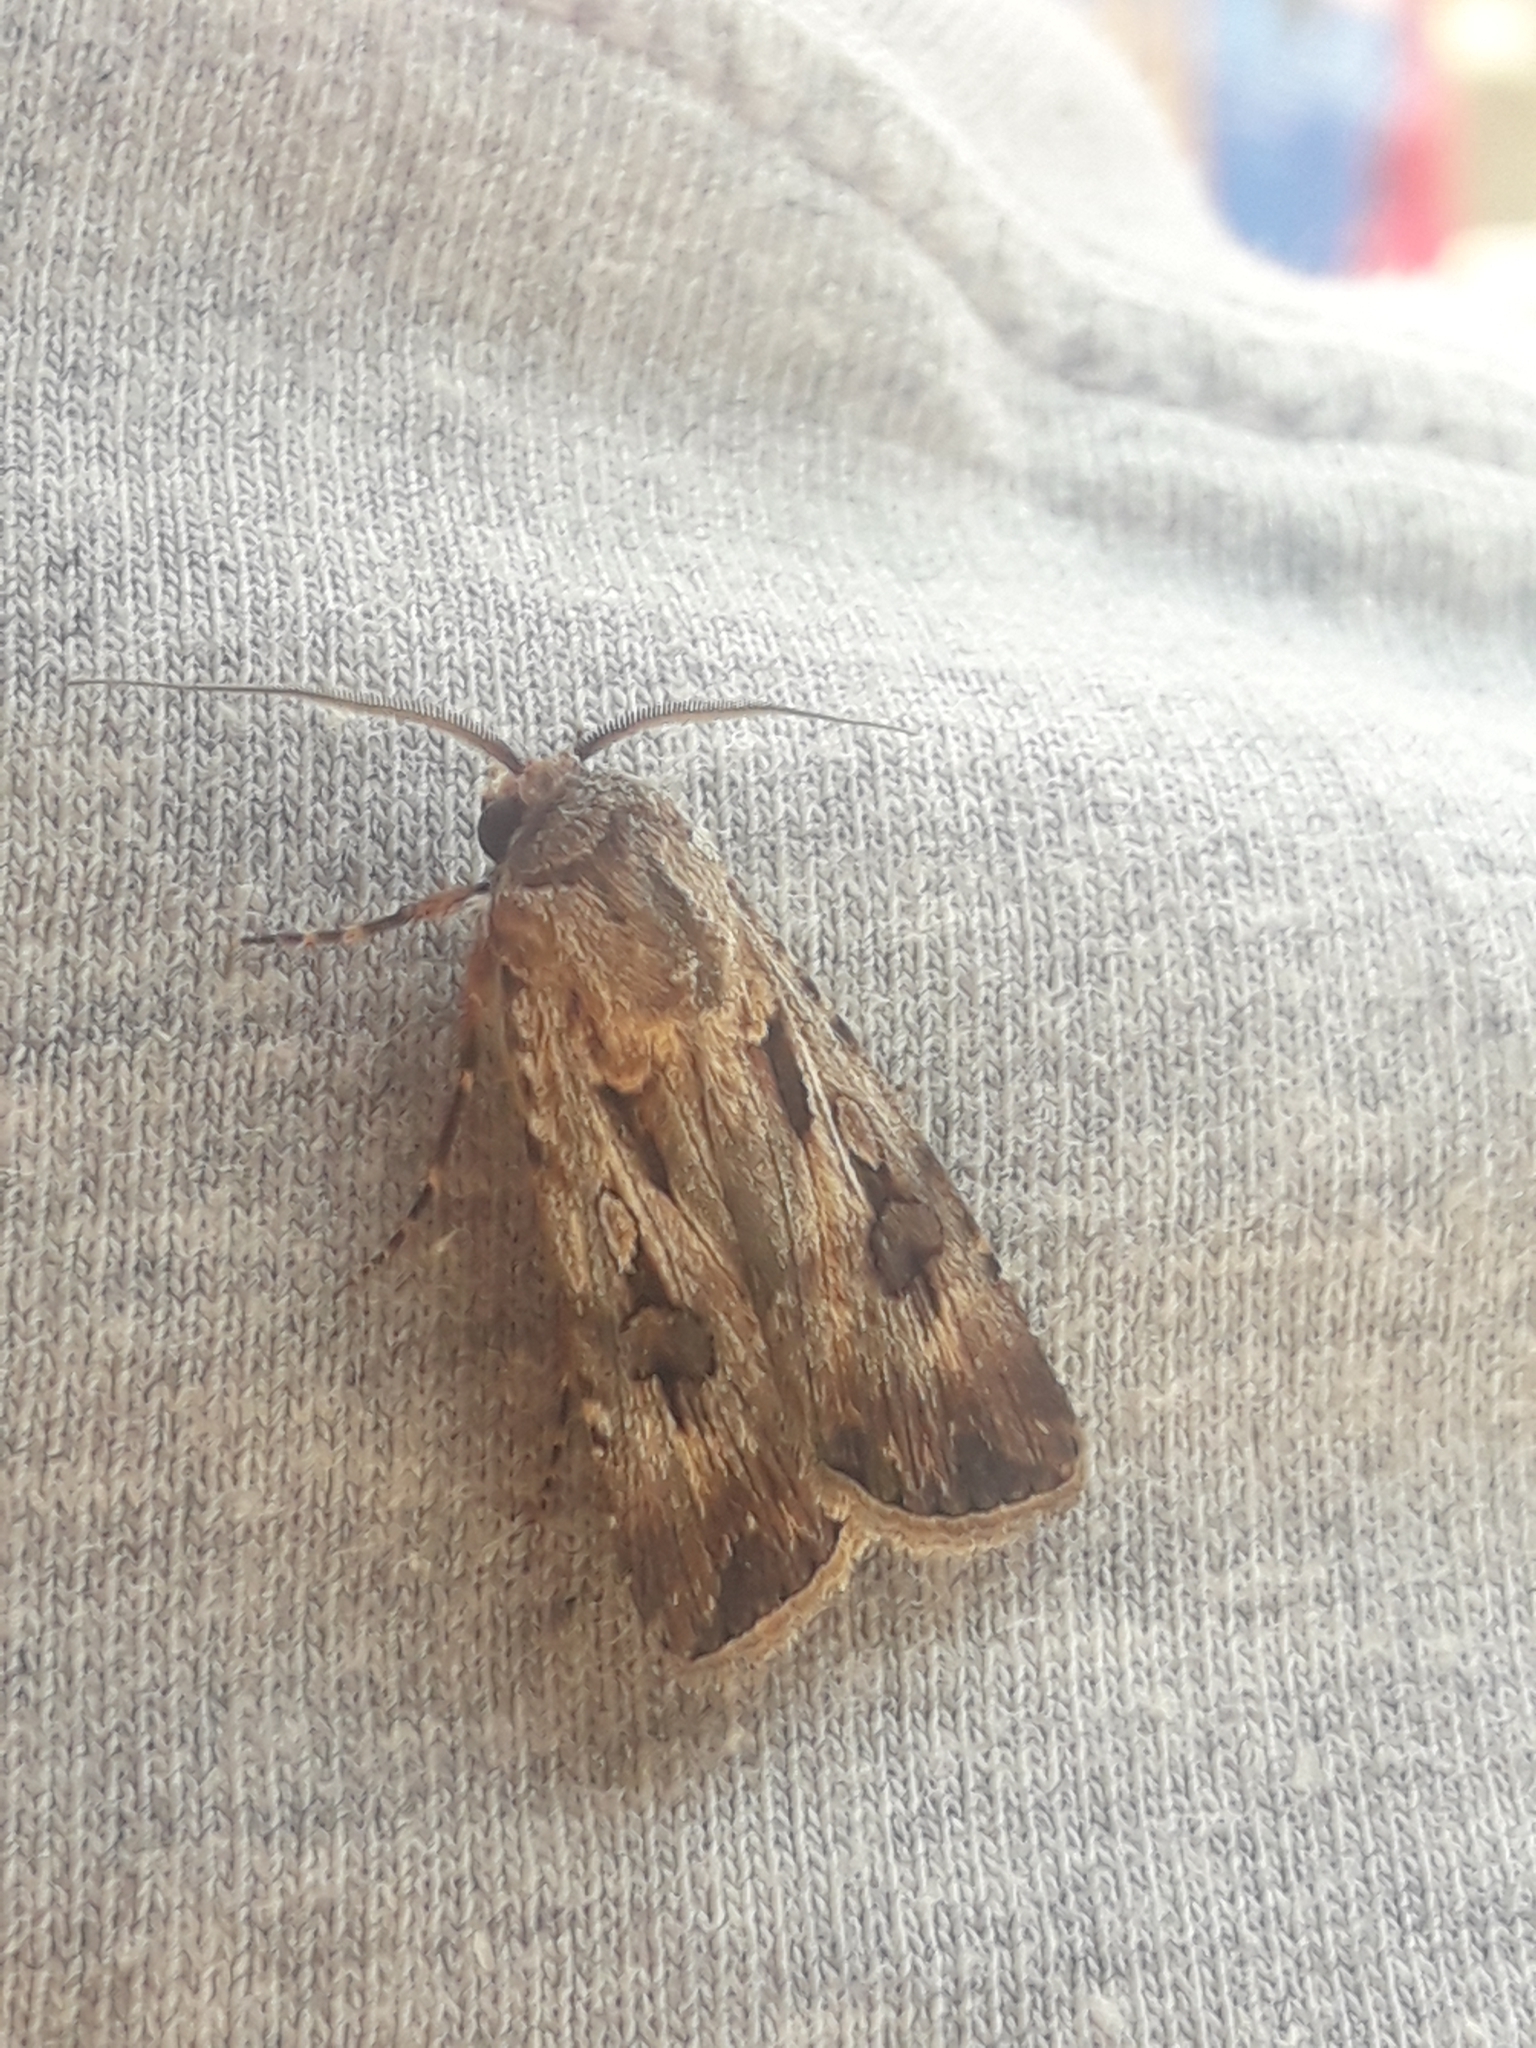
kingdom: Animalia
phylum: Arthropoda
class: Insecta
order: Lepidoptera
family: Noctuidae
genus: Agrotis
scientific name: Agrotis munda
